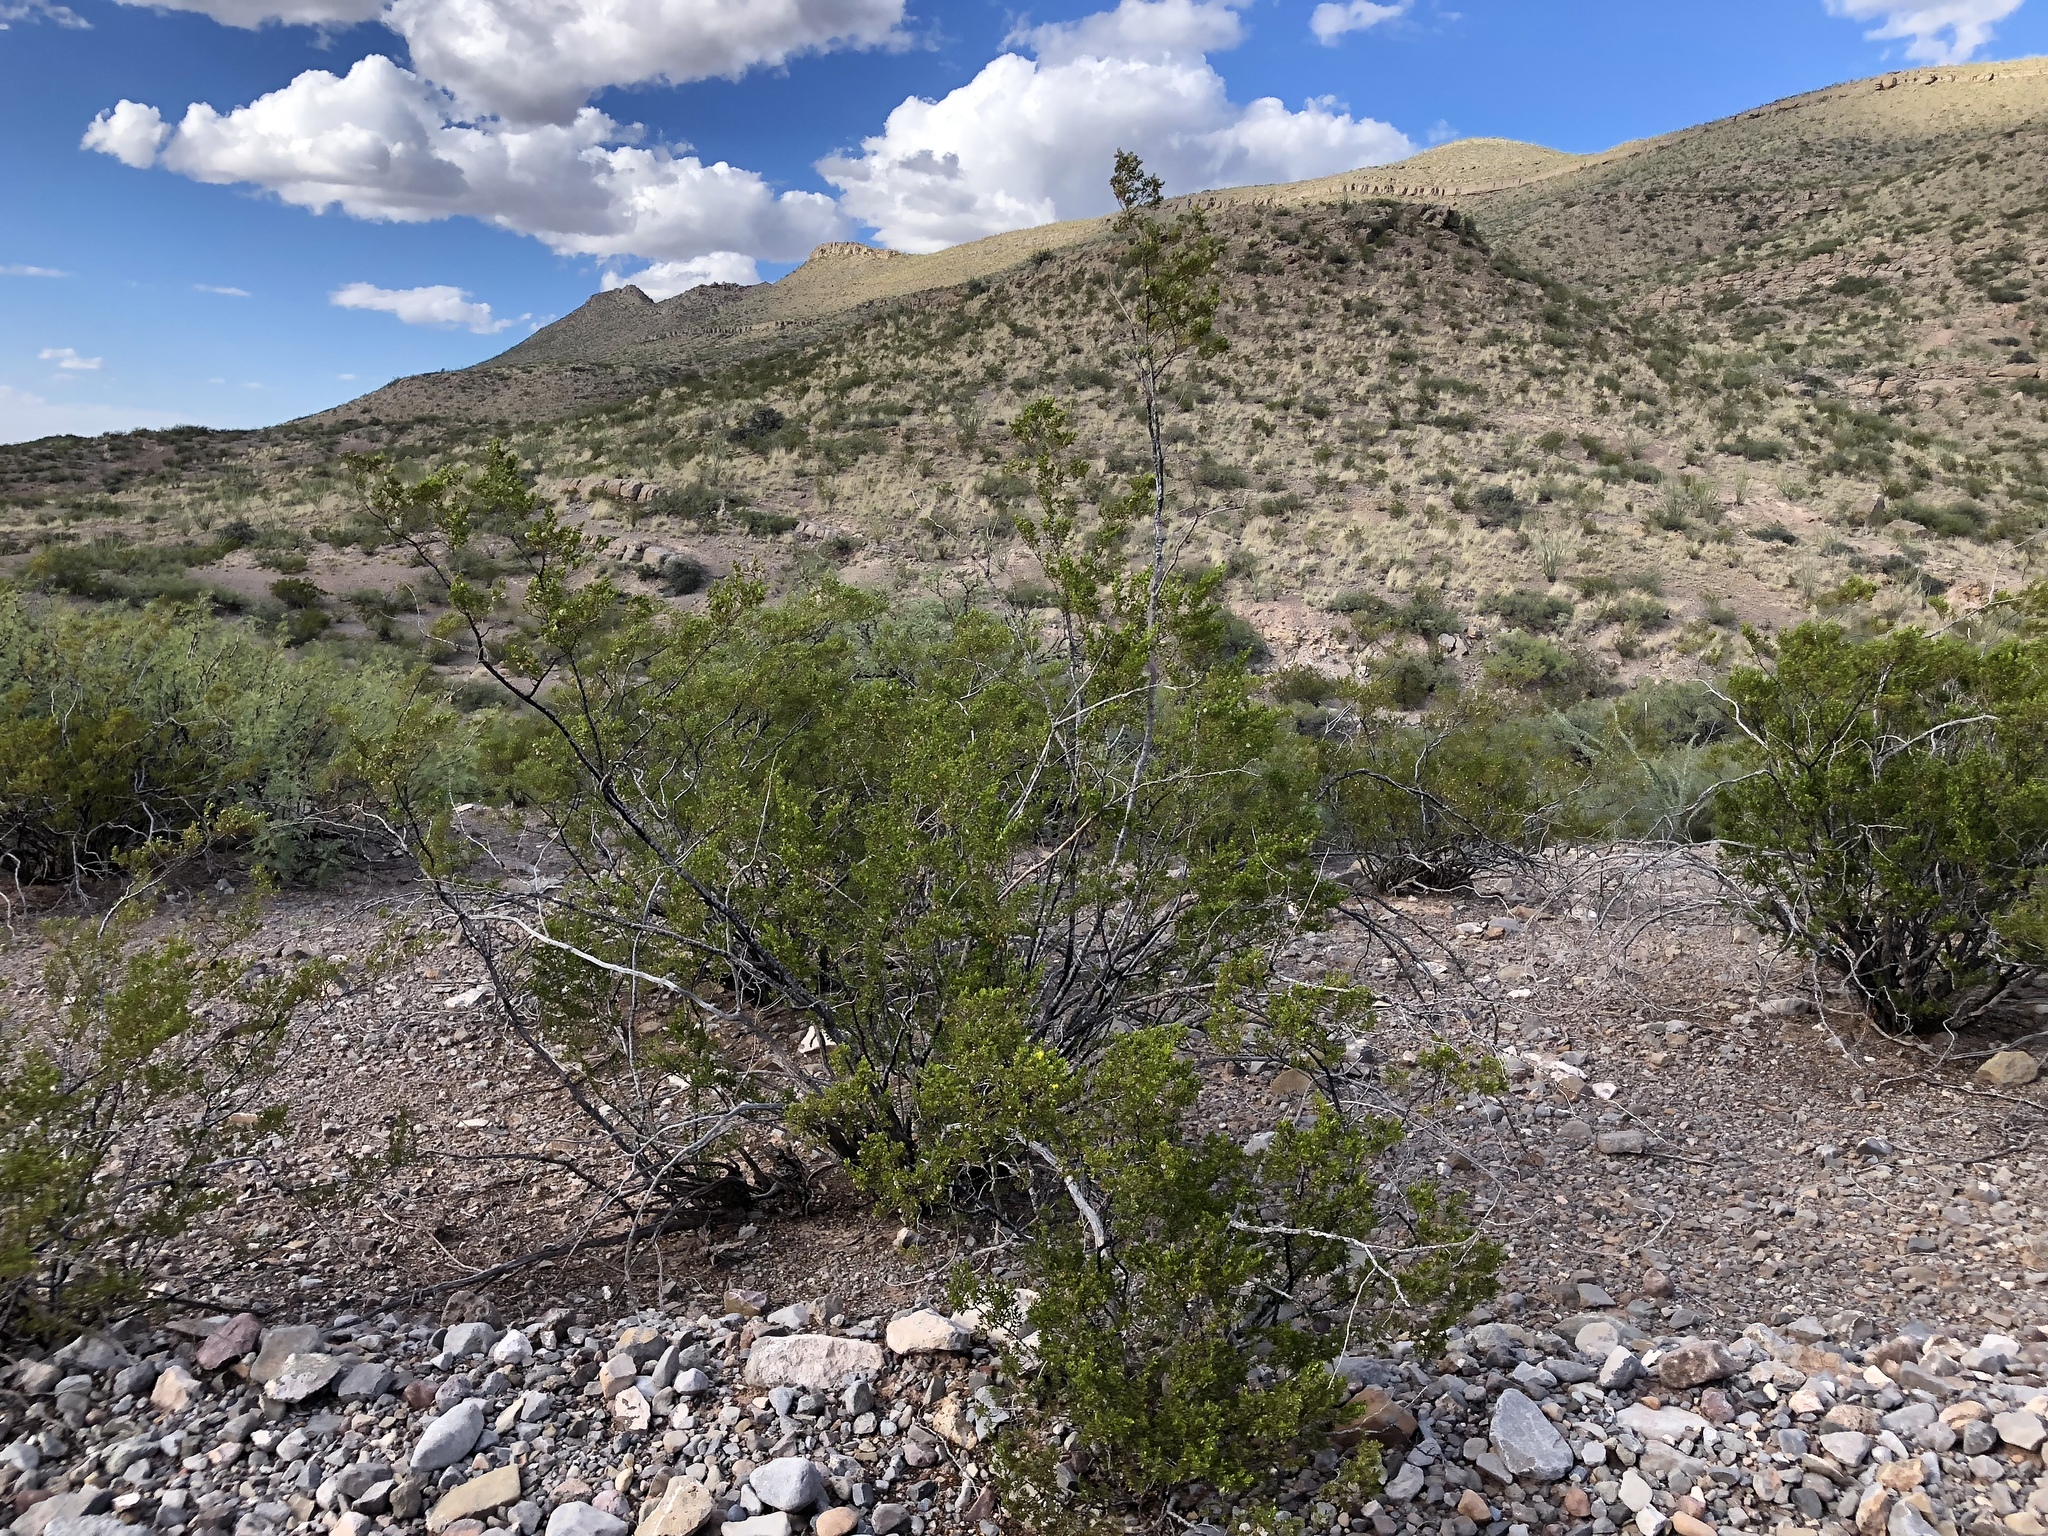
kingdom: Plantae
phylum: Tracheophyta
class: Magnoliopsida
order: Zygophyllales
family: Zygophyllaceae
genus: Larrea
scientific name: Larrea tridentata
